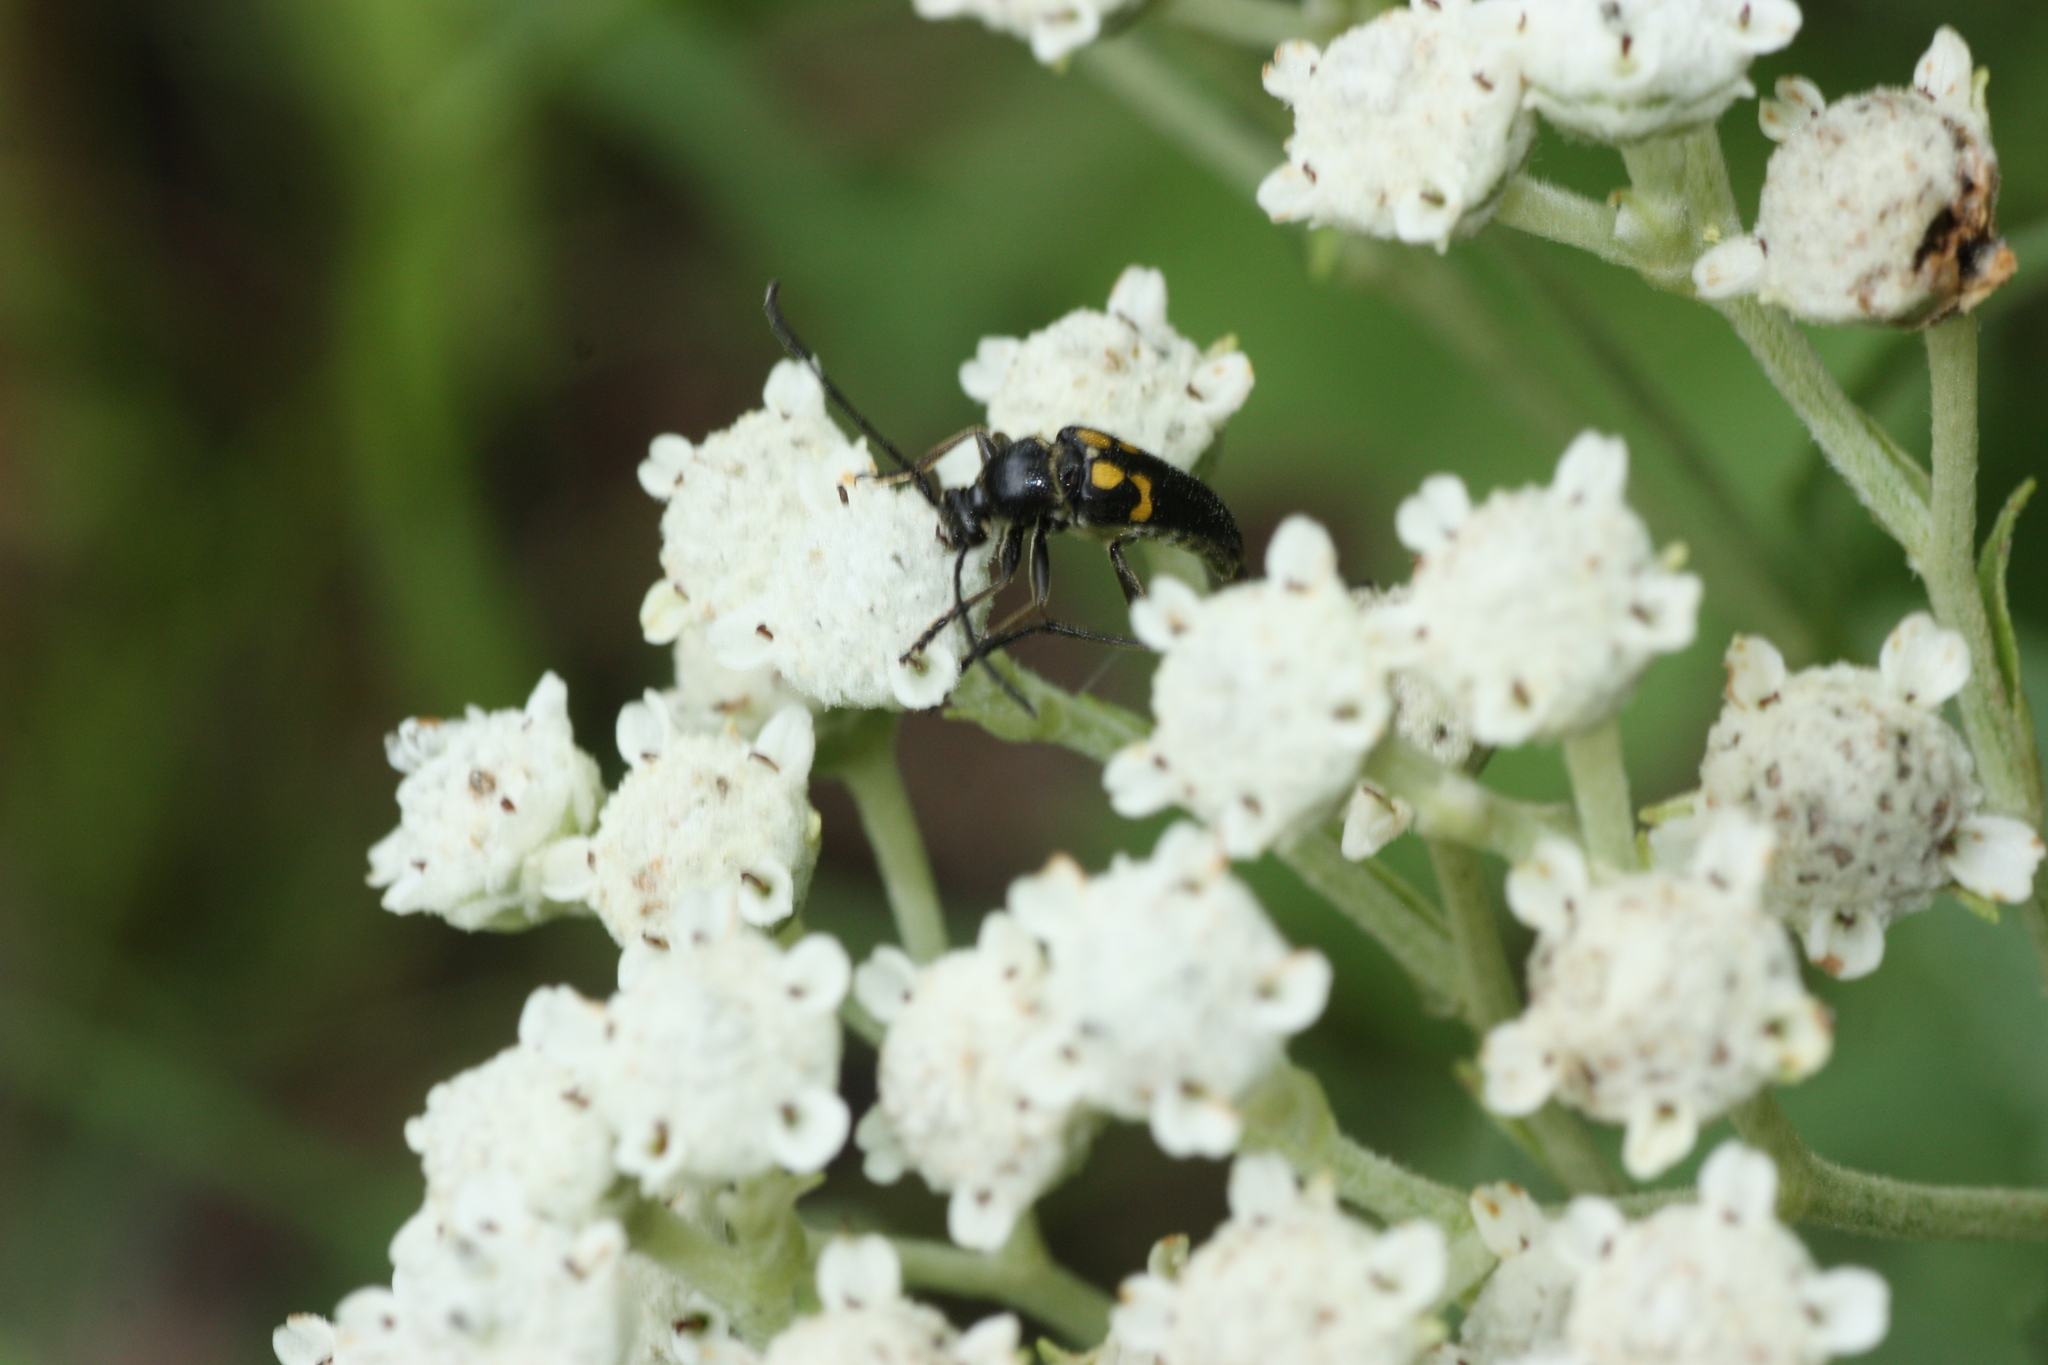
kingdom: Animalia
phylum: Arthropoda
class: Insecta
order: Coleoptera
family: Cerambycidae
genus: Typocerus
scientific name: Typocerus lunulatus
